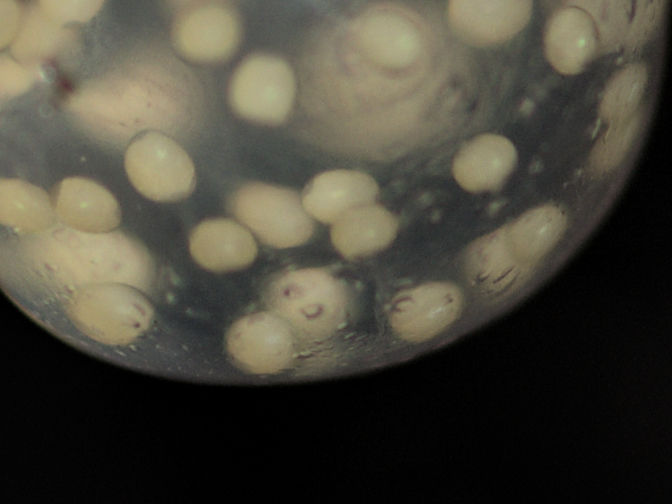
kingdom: Animalia
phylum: Arthropoda
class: Arachnida
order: Opiliones
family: Ischyropsalididae
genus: Ischyropsalis
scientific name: Ischyropsalis luteipes
